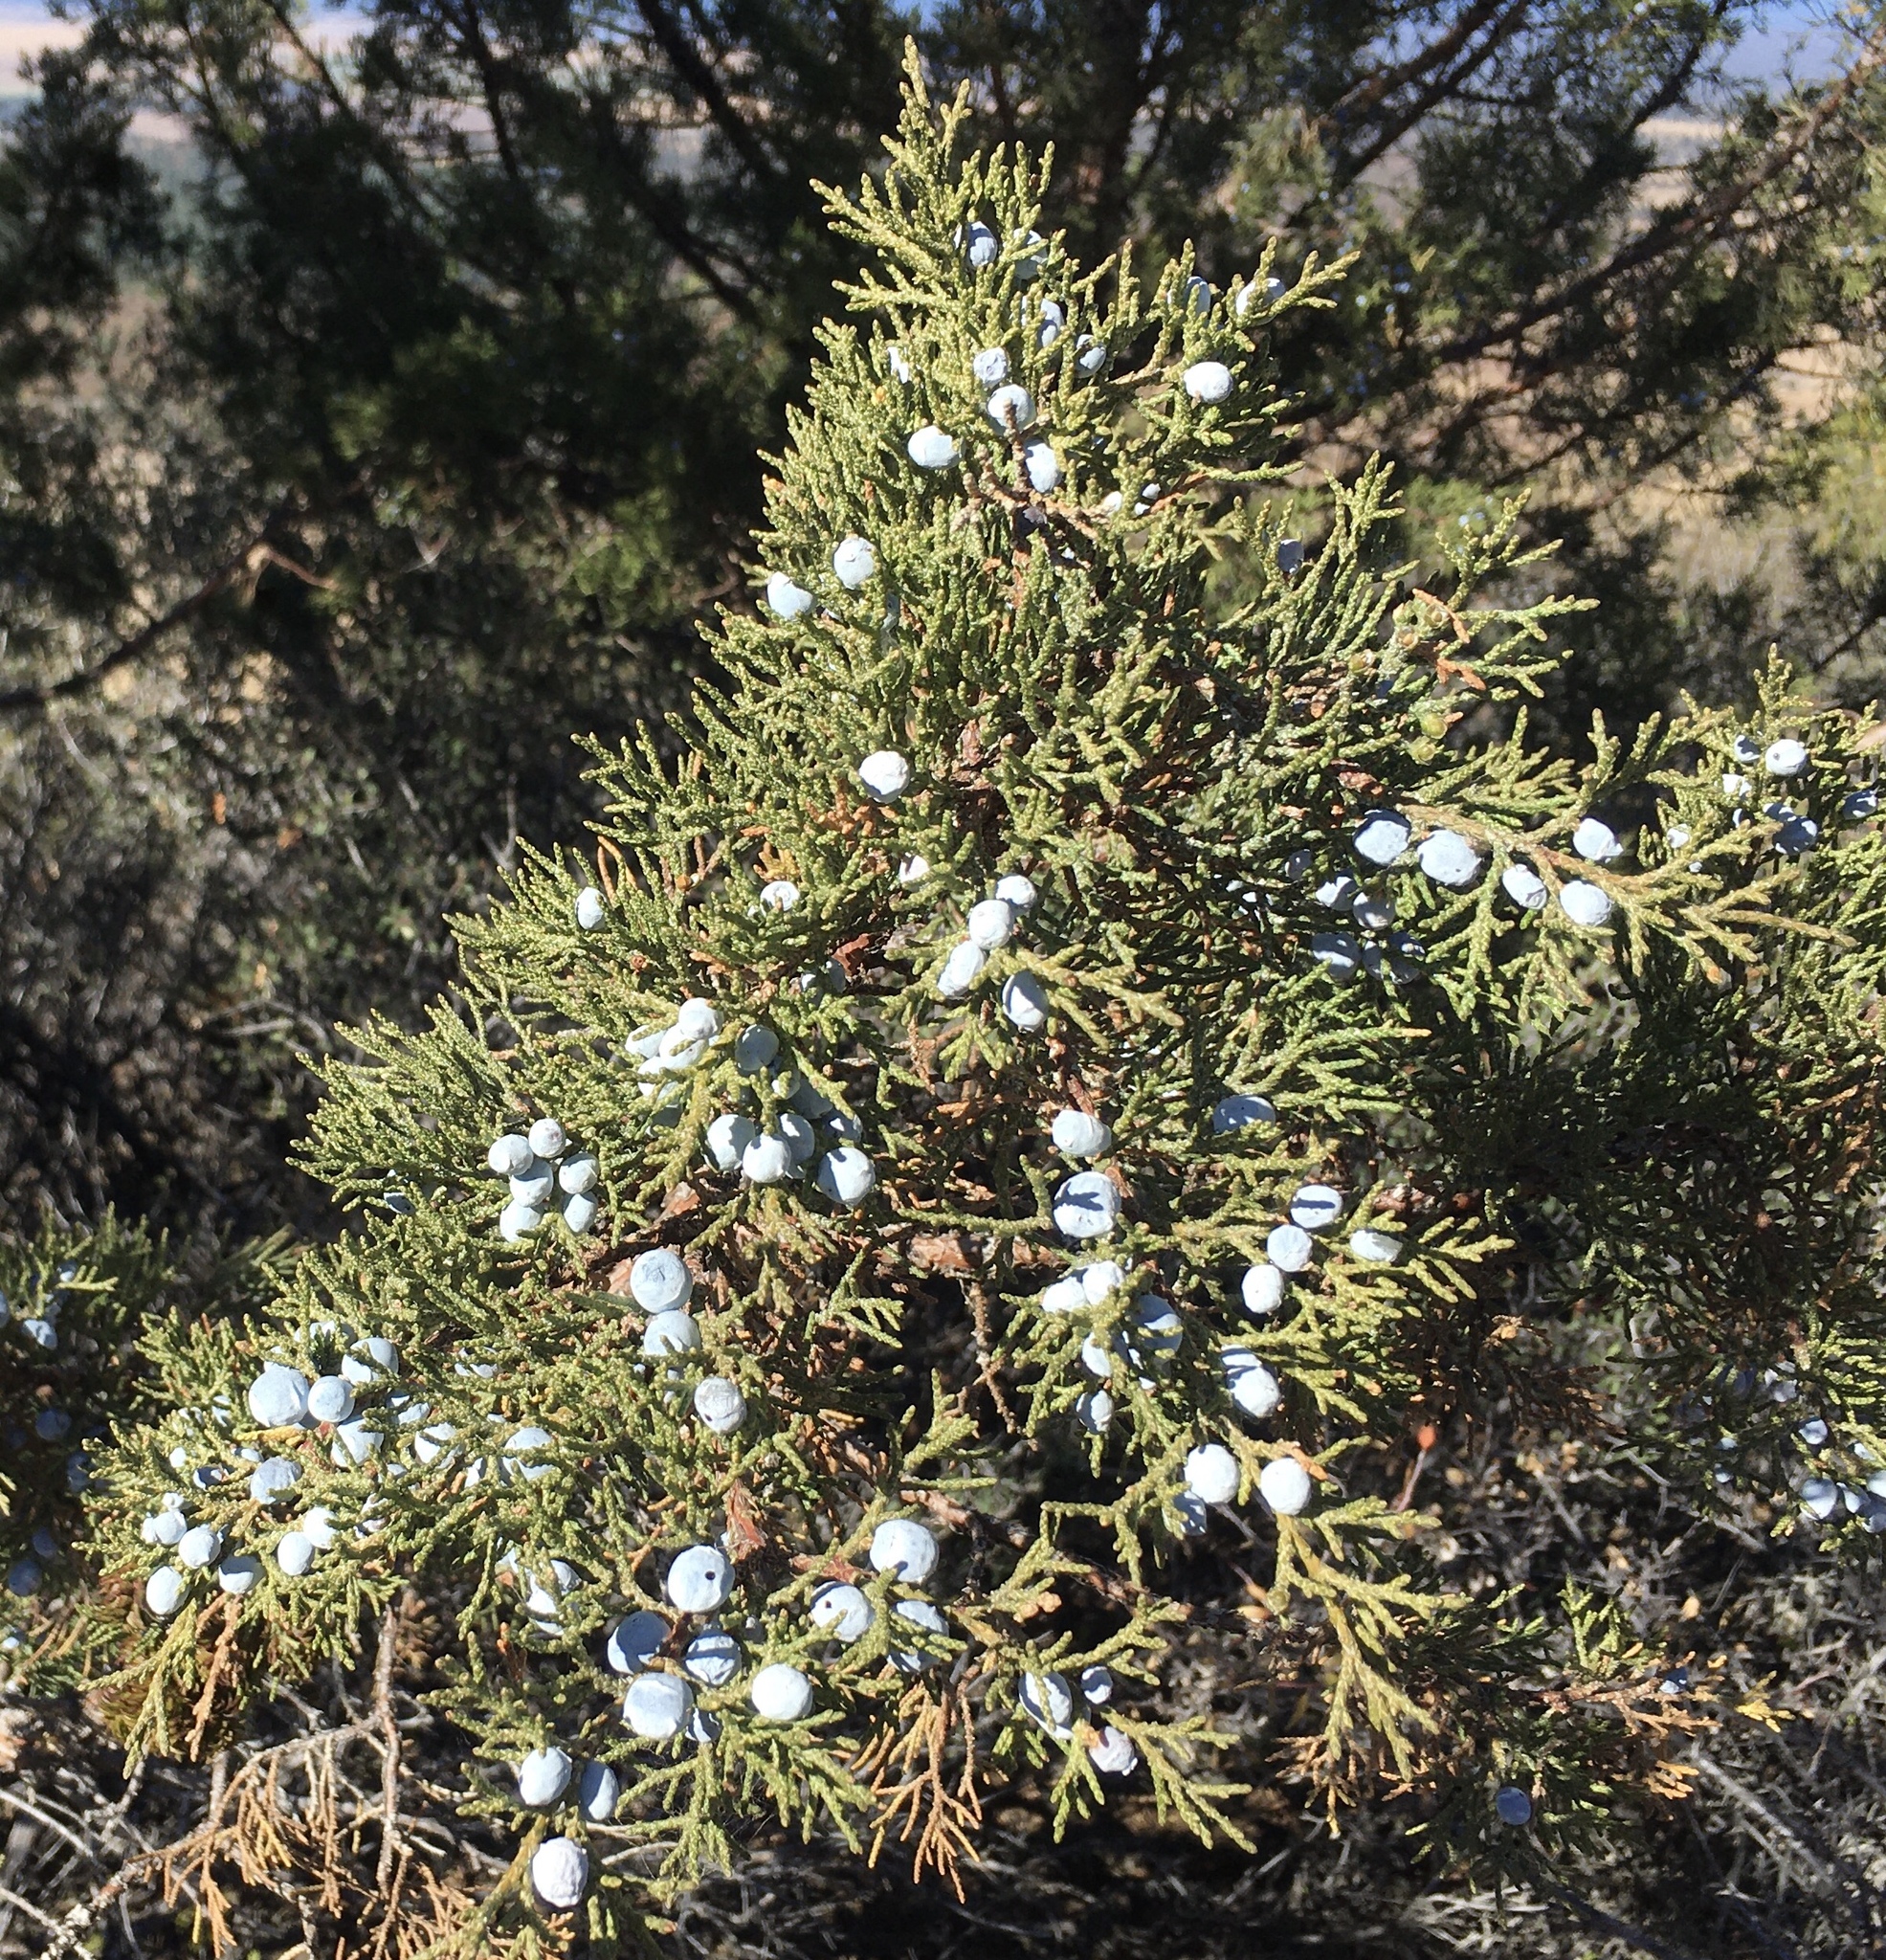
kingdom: Plantae
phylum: Tracheophyta
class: Pinopsida
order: Pinales
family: Cupressaceae
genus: Juniperus
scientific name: Juniperus occidentalis
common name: Western juniper
